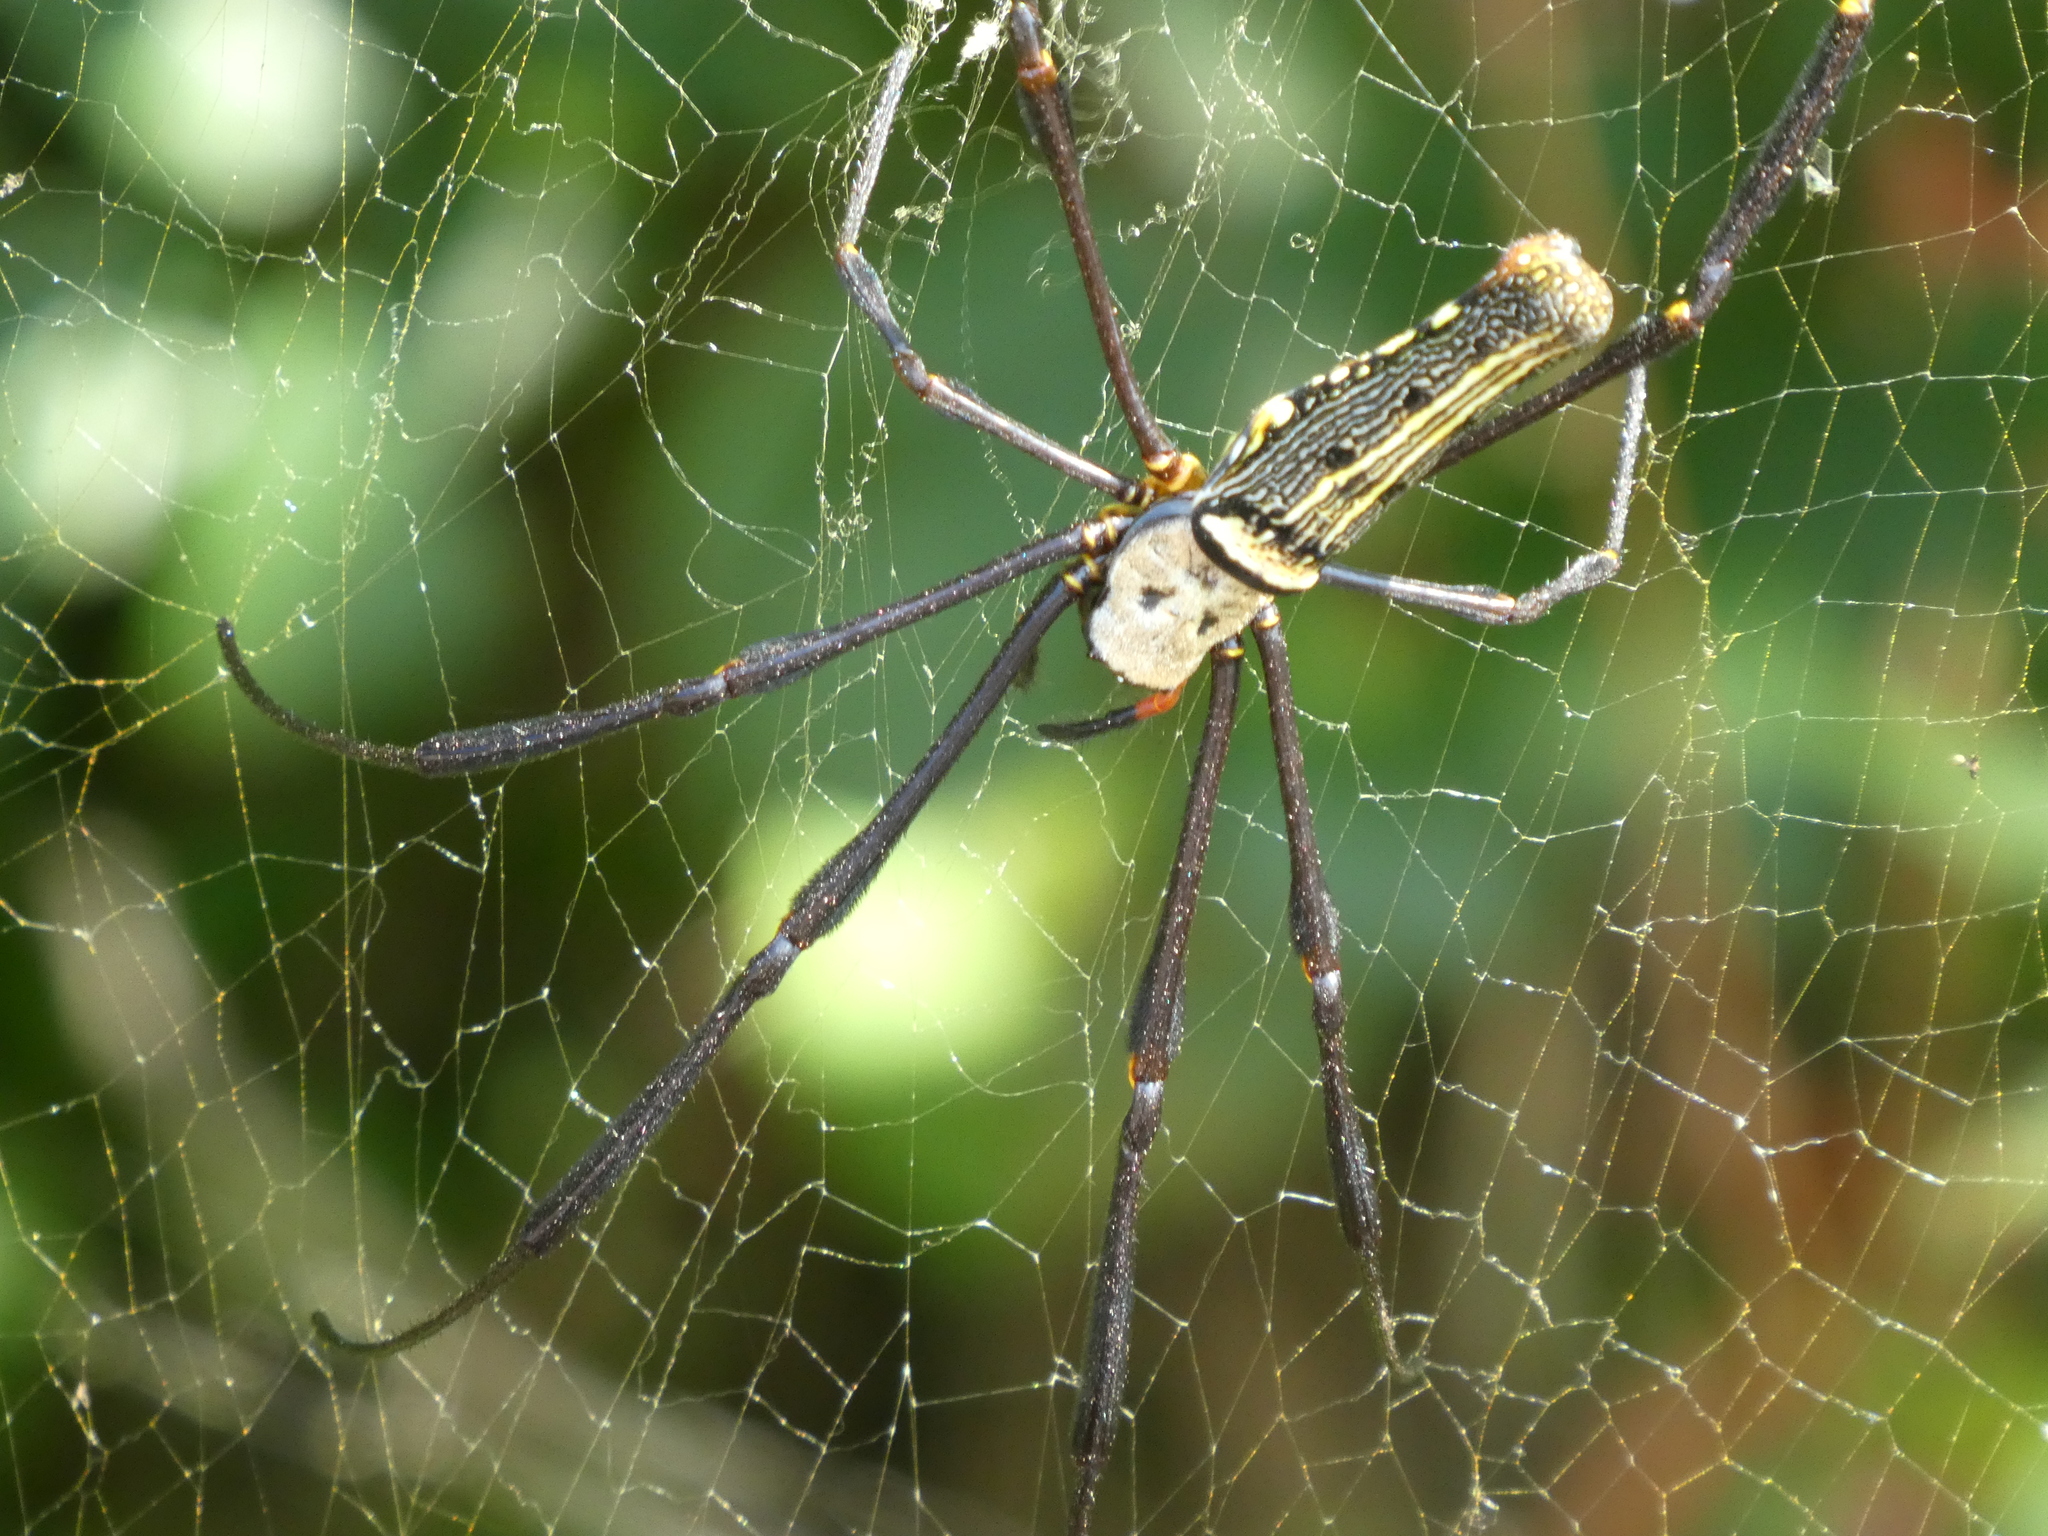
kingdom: Animalia
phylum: Arthropoda
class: Arachnida
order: Araneae
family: Araneidae
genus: Nephila
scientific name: Nephila pilipes
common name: Giant golden orb weaver
